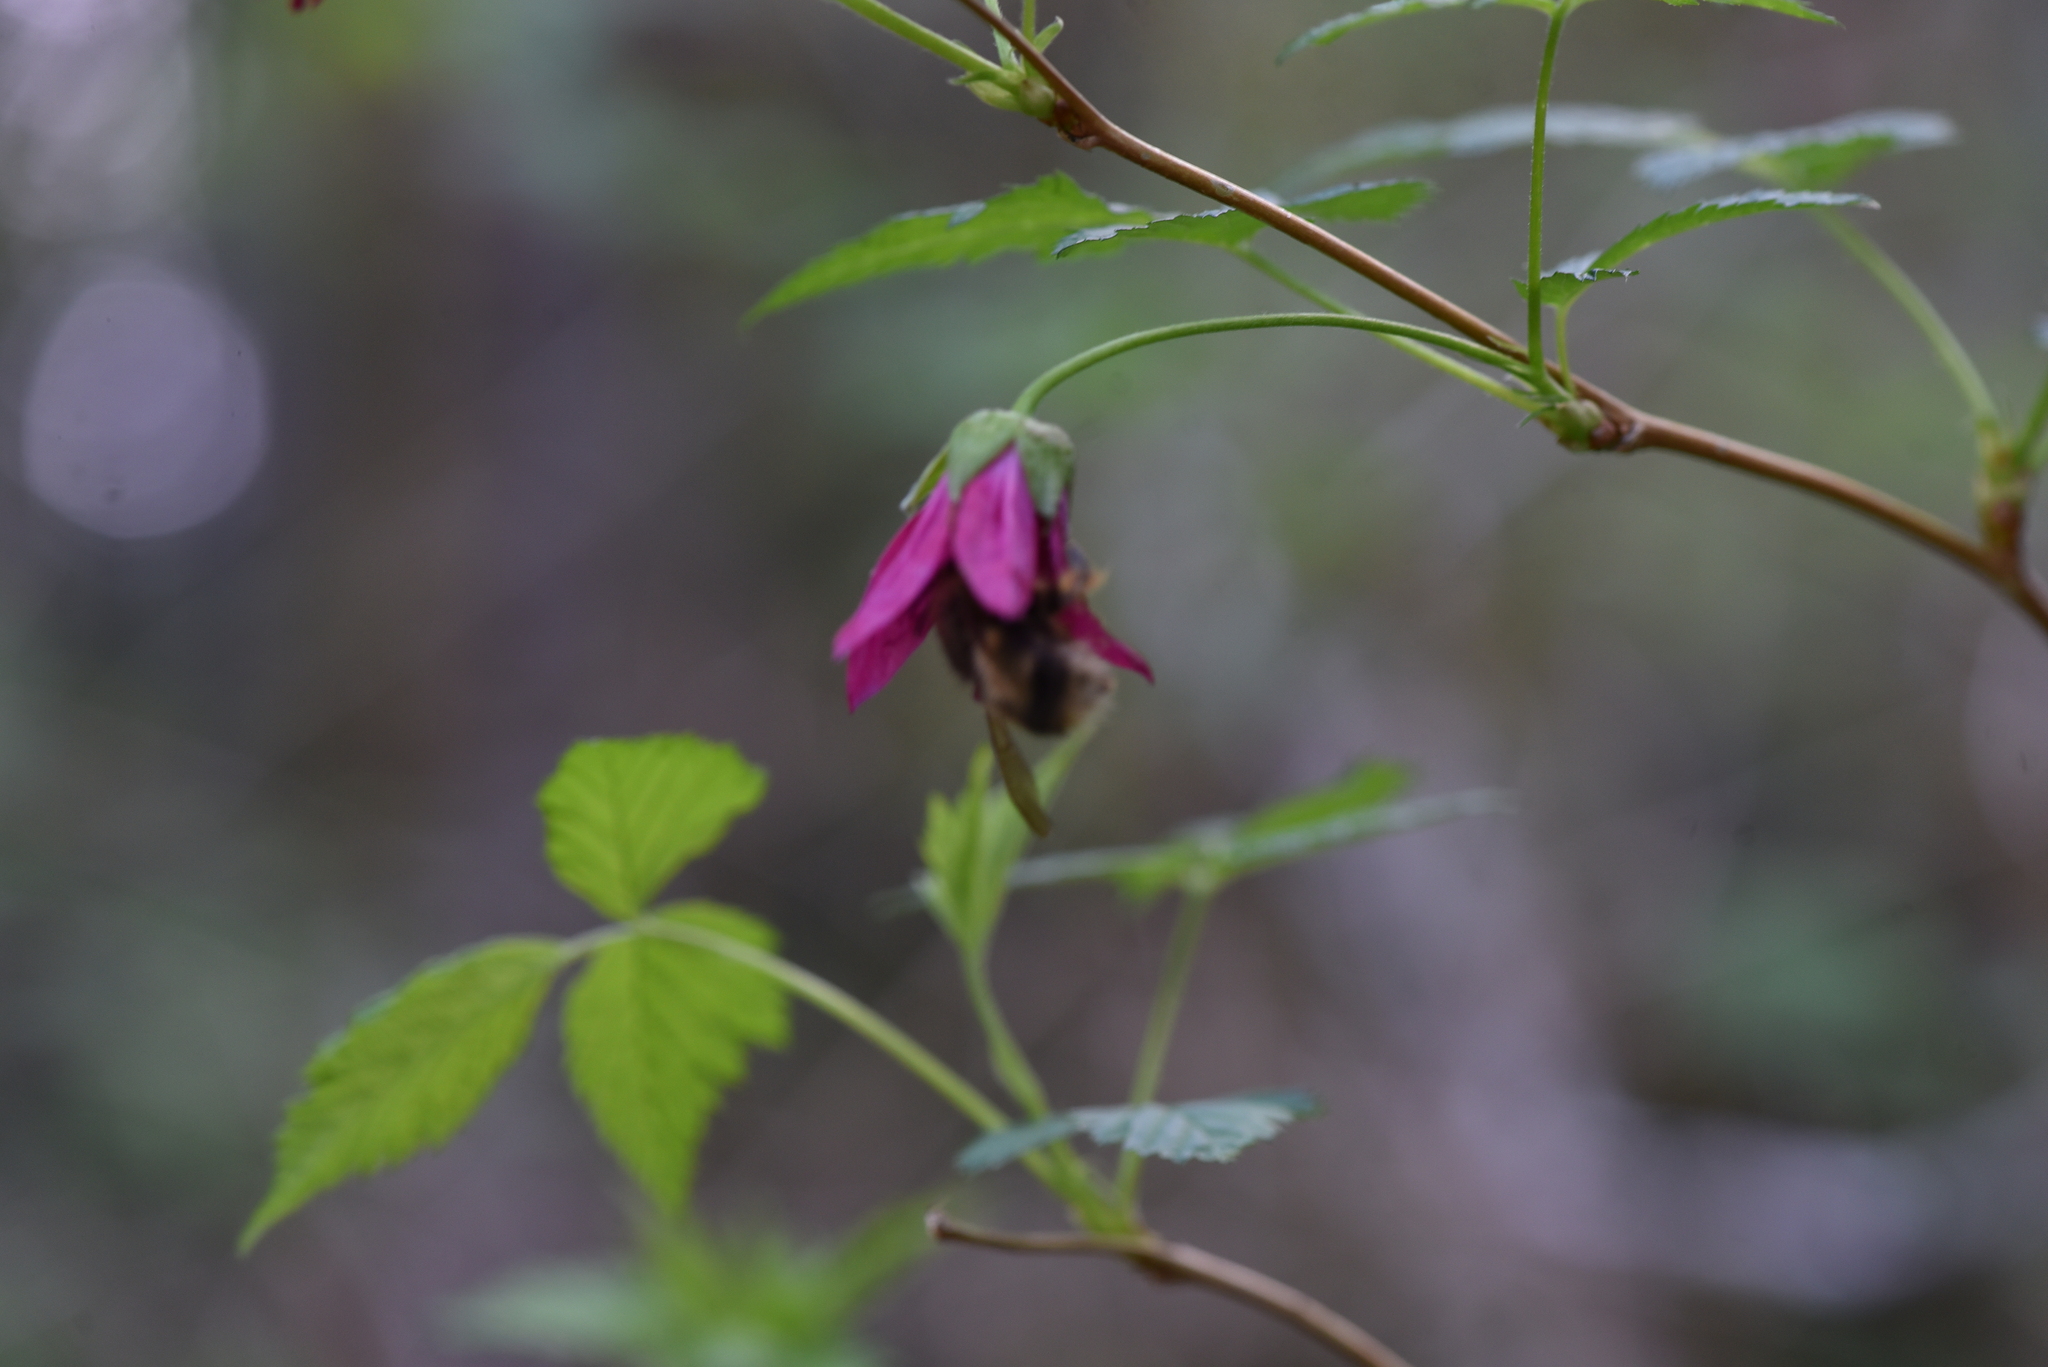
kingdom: Animalia
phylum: Arthropoda
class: Insecta
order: Hymenoptera
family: Apidae
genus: Bombus
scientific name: Bombus sitkensis
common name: Sitka bumble bee
